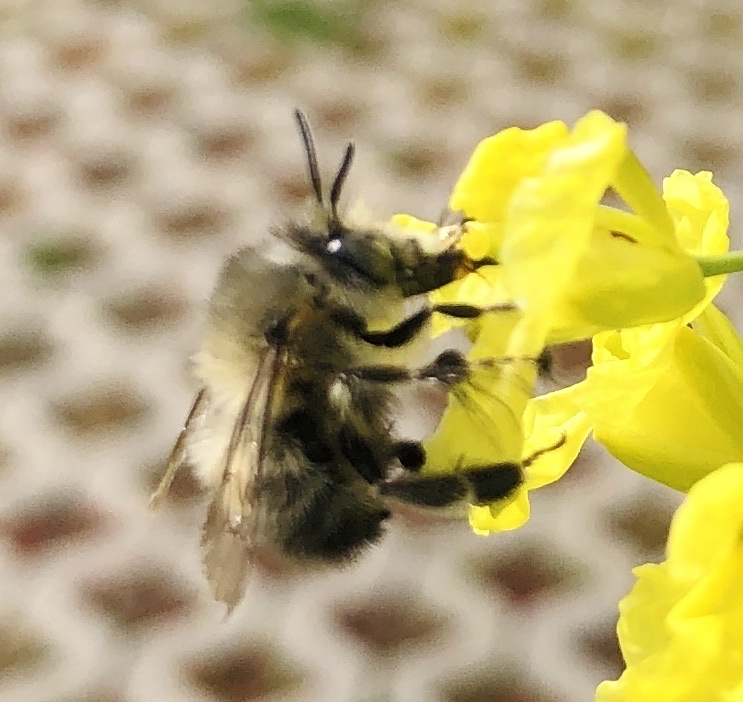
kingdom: Animalia
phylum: Arthropoda
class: Insecta
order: Hymenoptera
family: Apidae
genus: Anthophora
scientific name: Anthophora plumipes
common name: Hairy-footed flower bee
